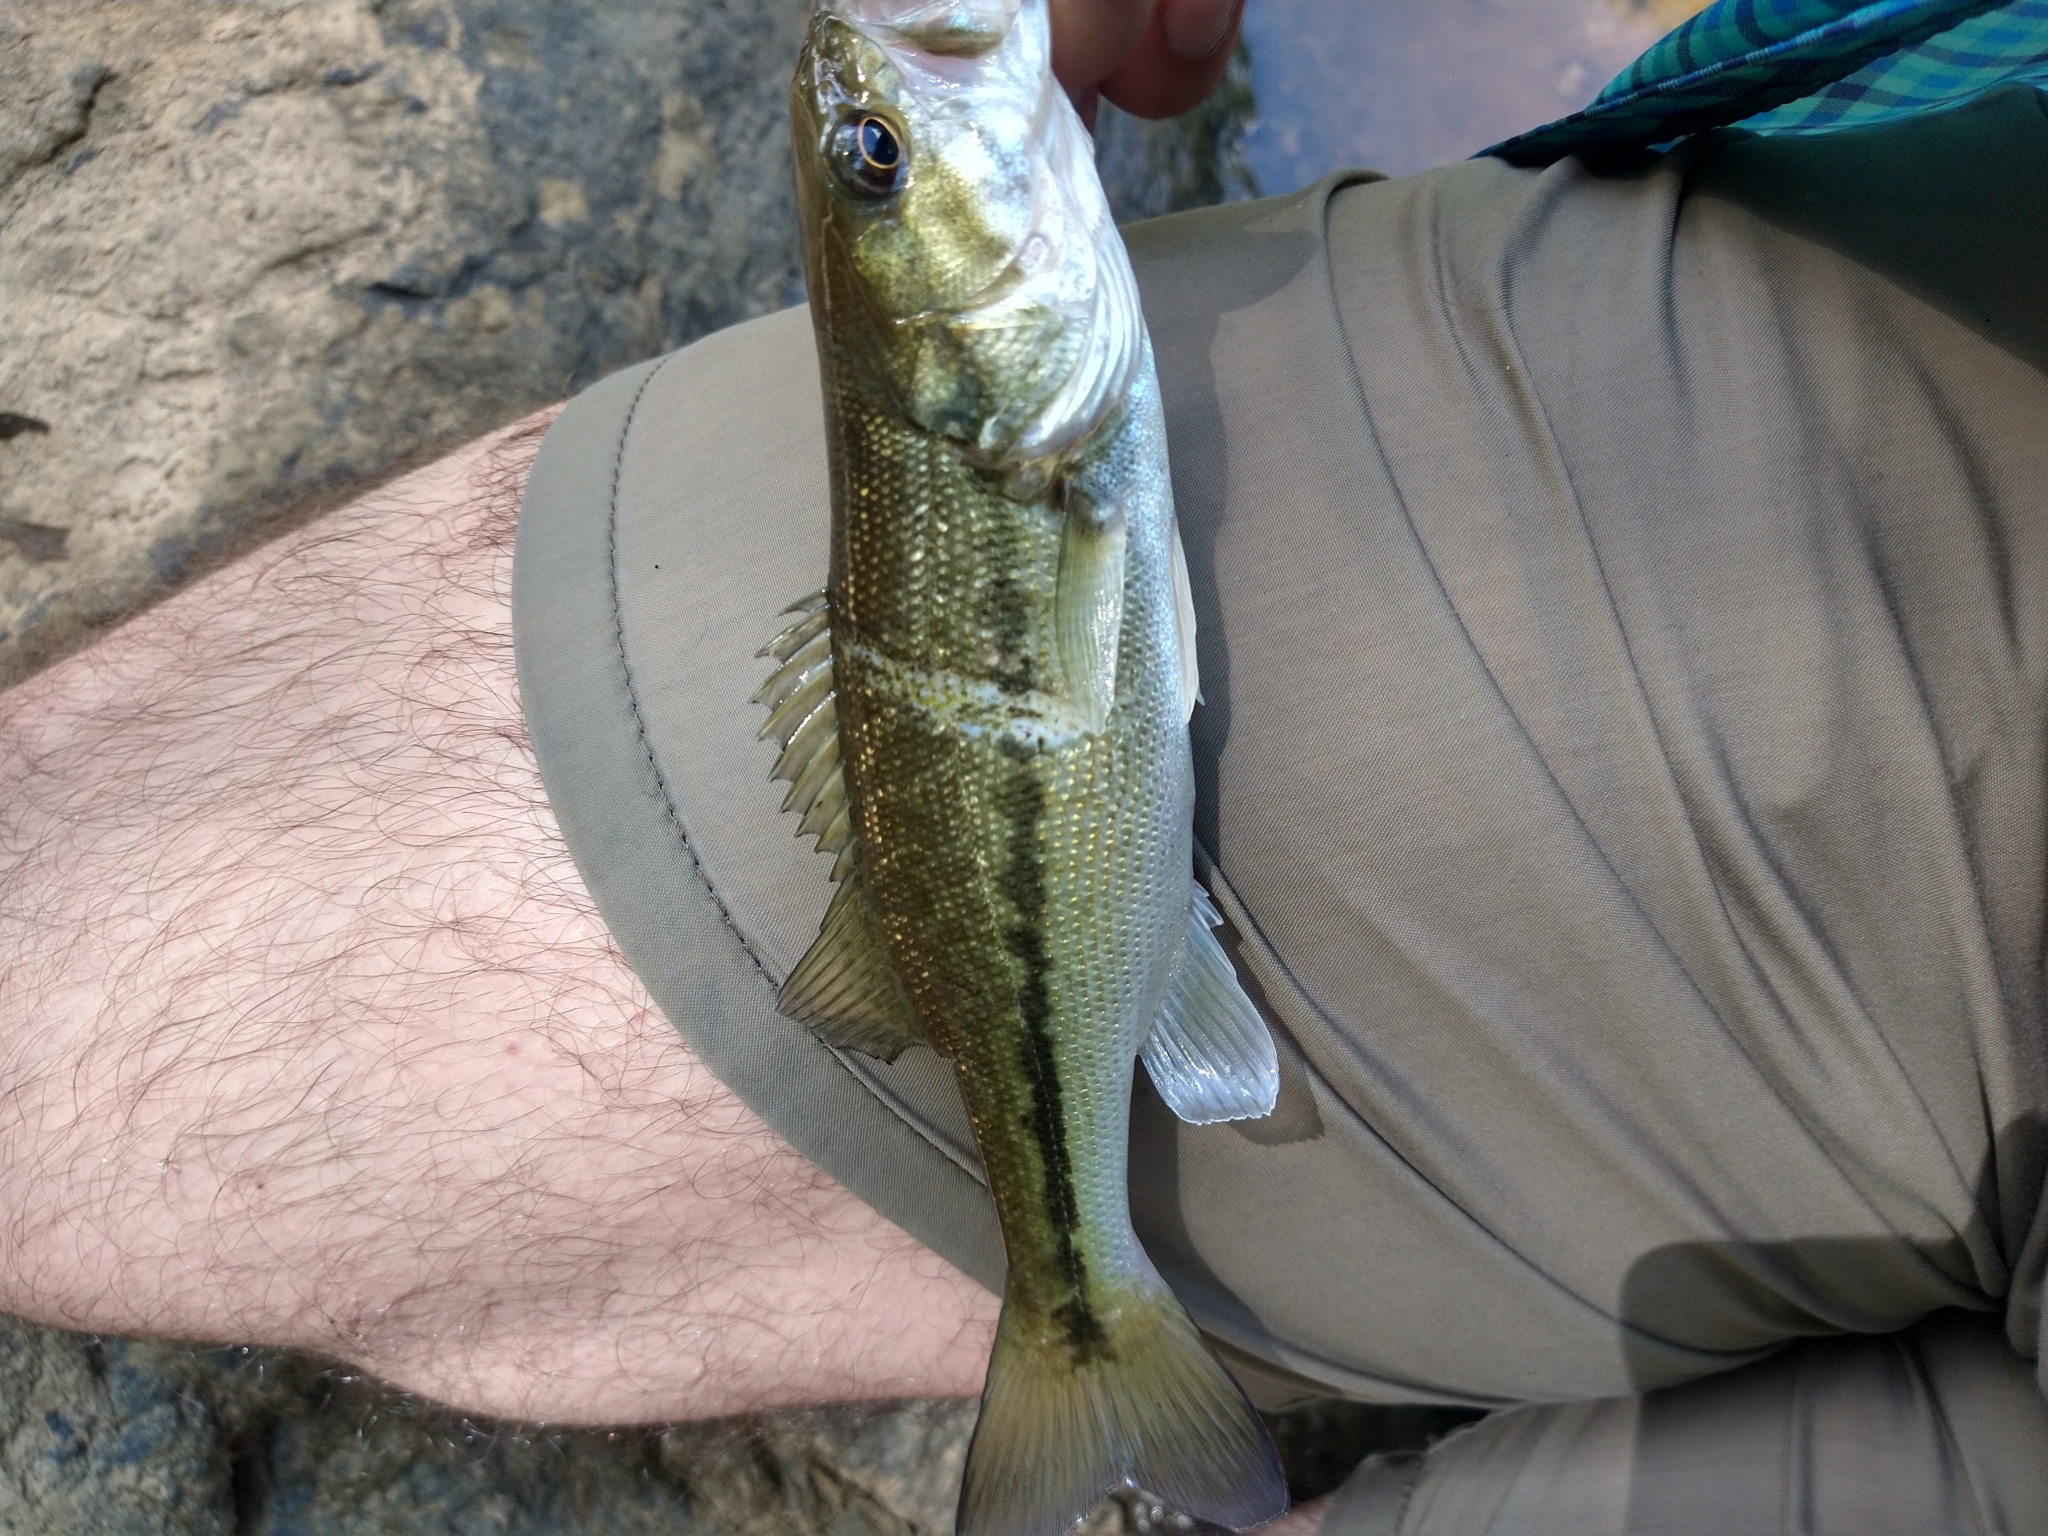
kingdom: Animalia
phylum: Chordata
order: Perciformes
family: Centrarchidae
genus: Micropterus
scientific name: Micropterus henshalli
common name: Alabama bass
